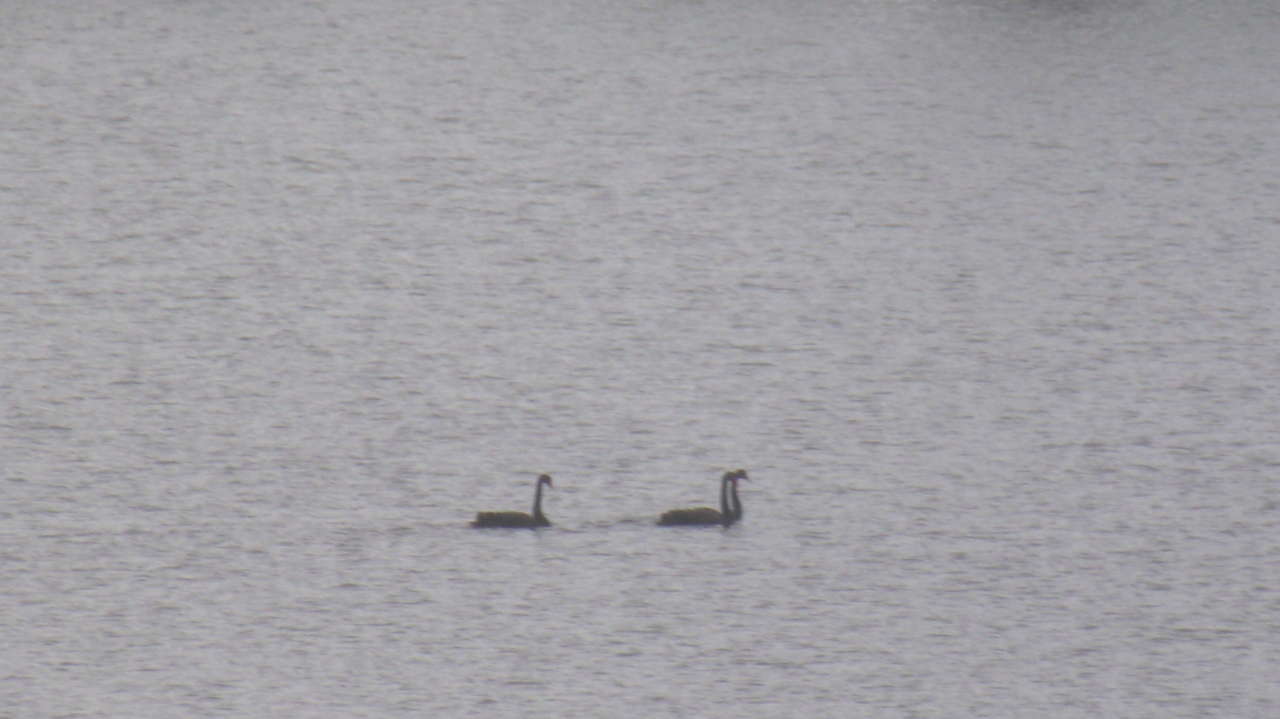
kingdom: Animalia
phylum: Chordata
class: Aves
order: Anseriformes
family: Anatidae
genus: Cygnus
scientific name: Cygnus atratus
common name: Black swan
